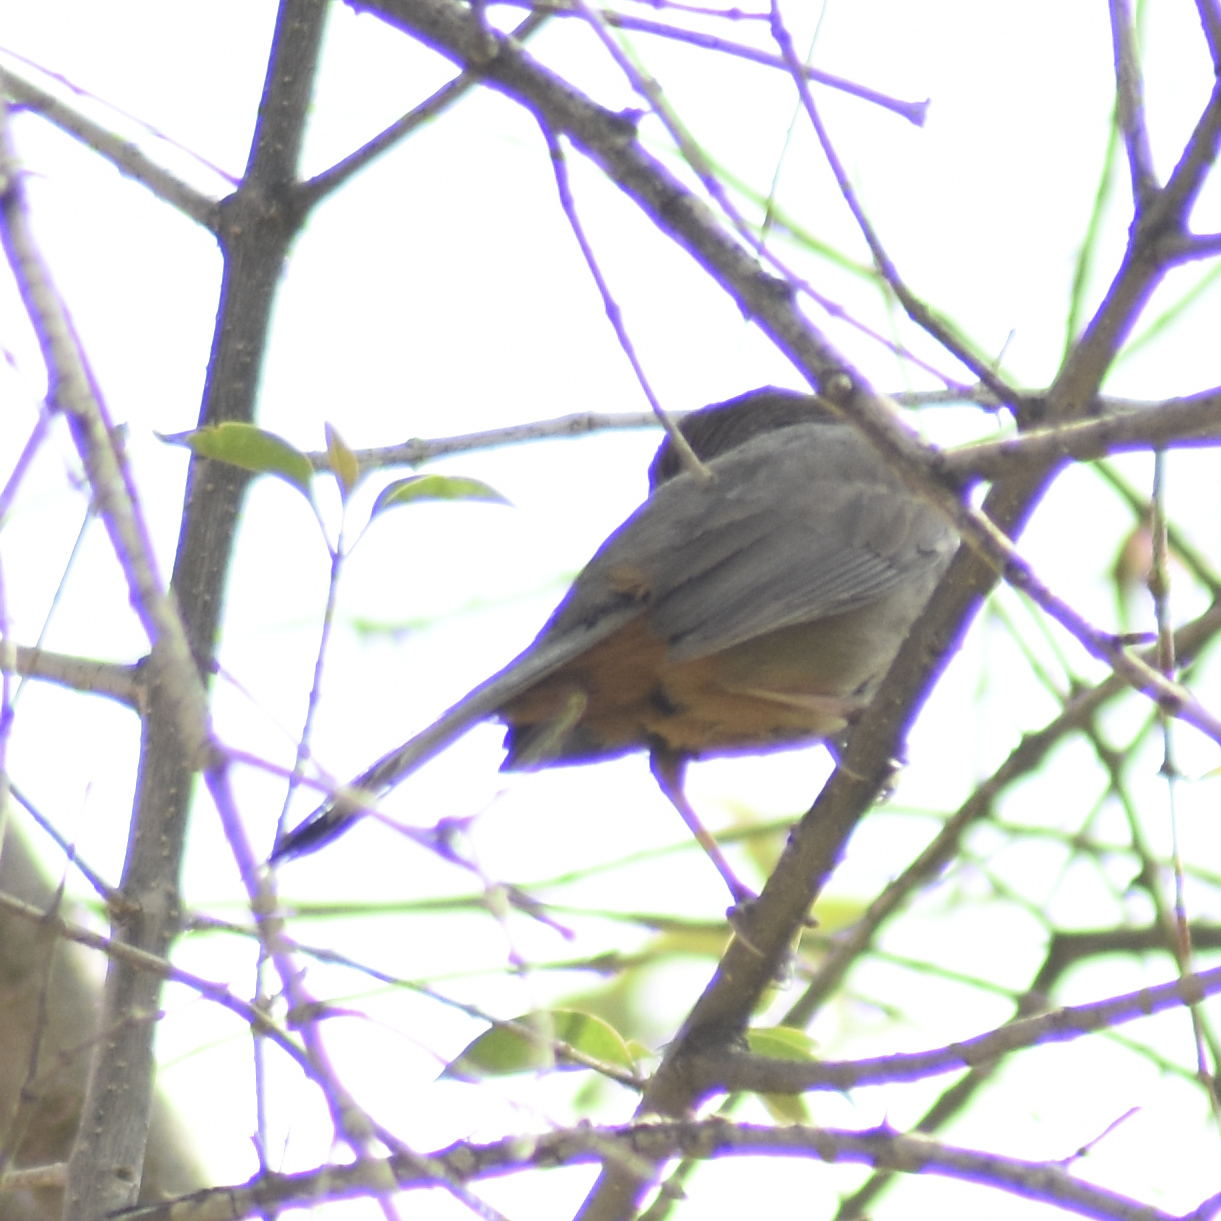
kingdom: Animalia
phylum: Chordata
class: Aves
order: Passeriformes
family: Mimidae
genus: Mimus
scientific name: Mimus polyglottos
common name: Northern mockingbird
